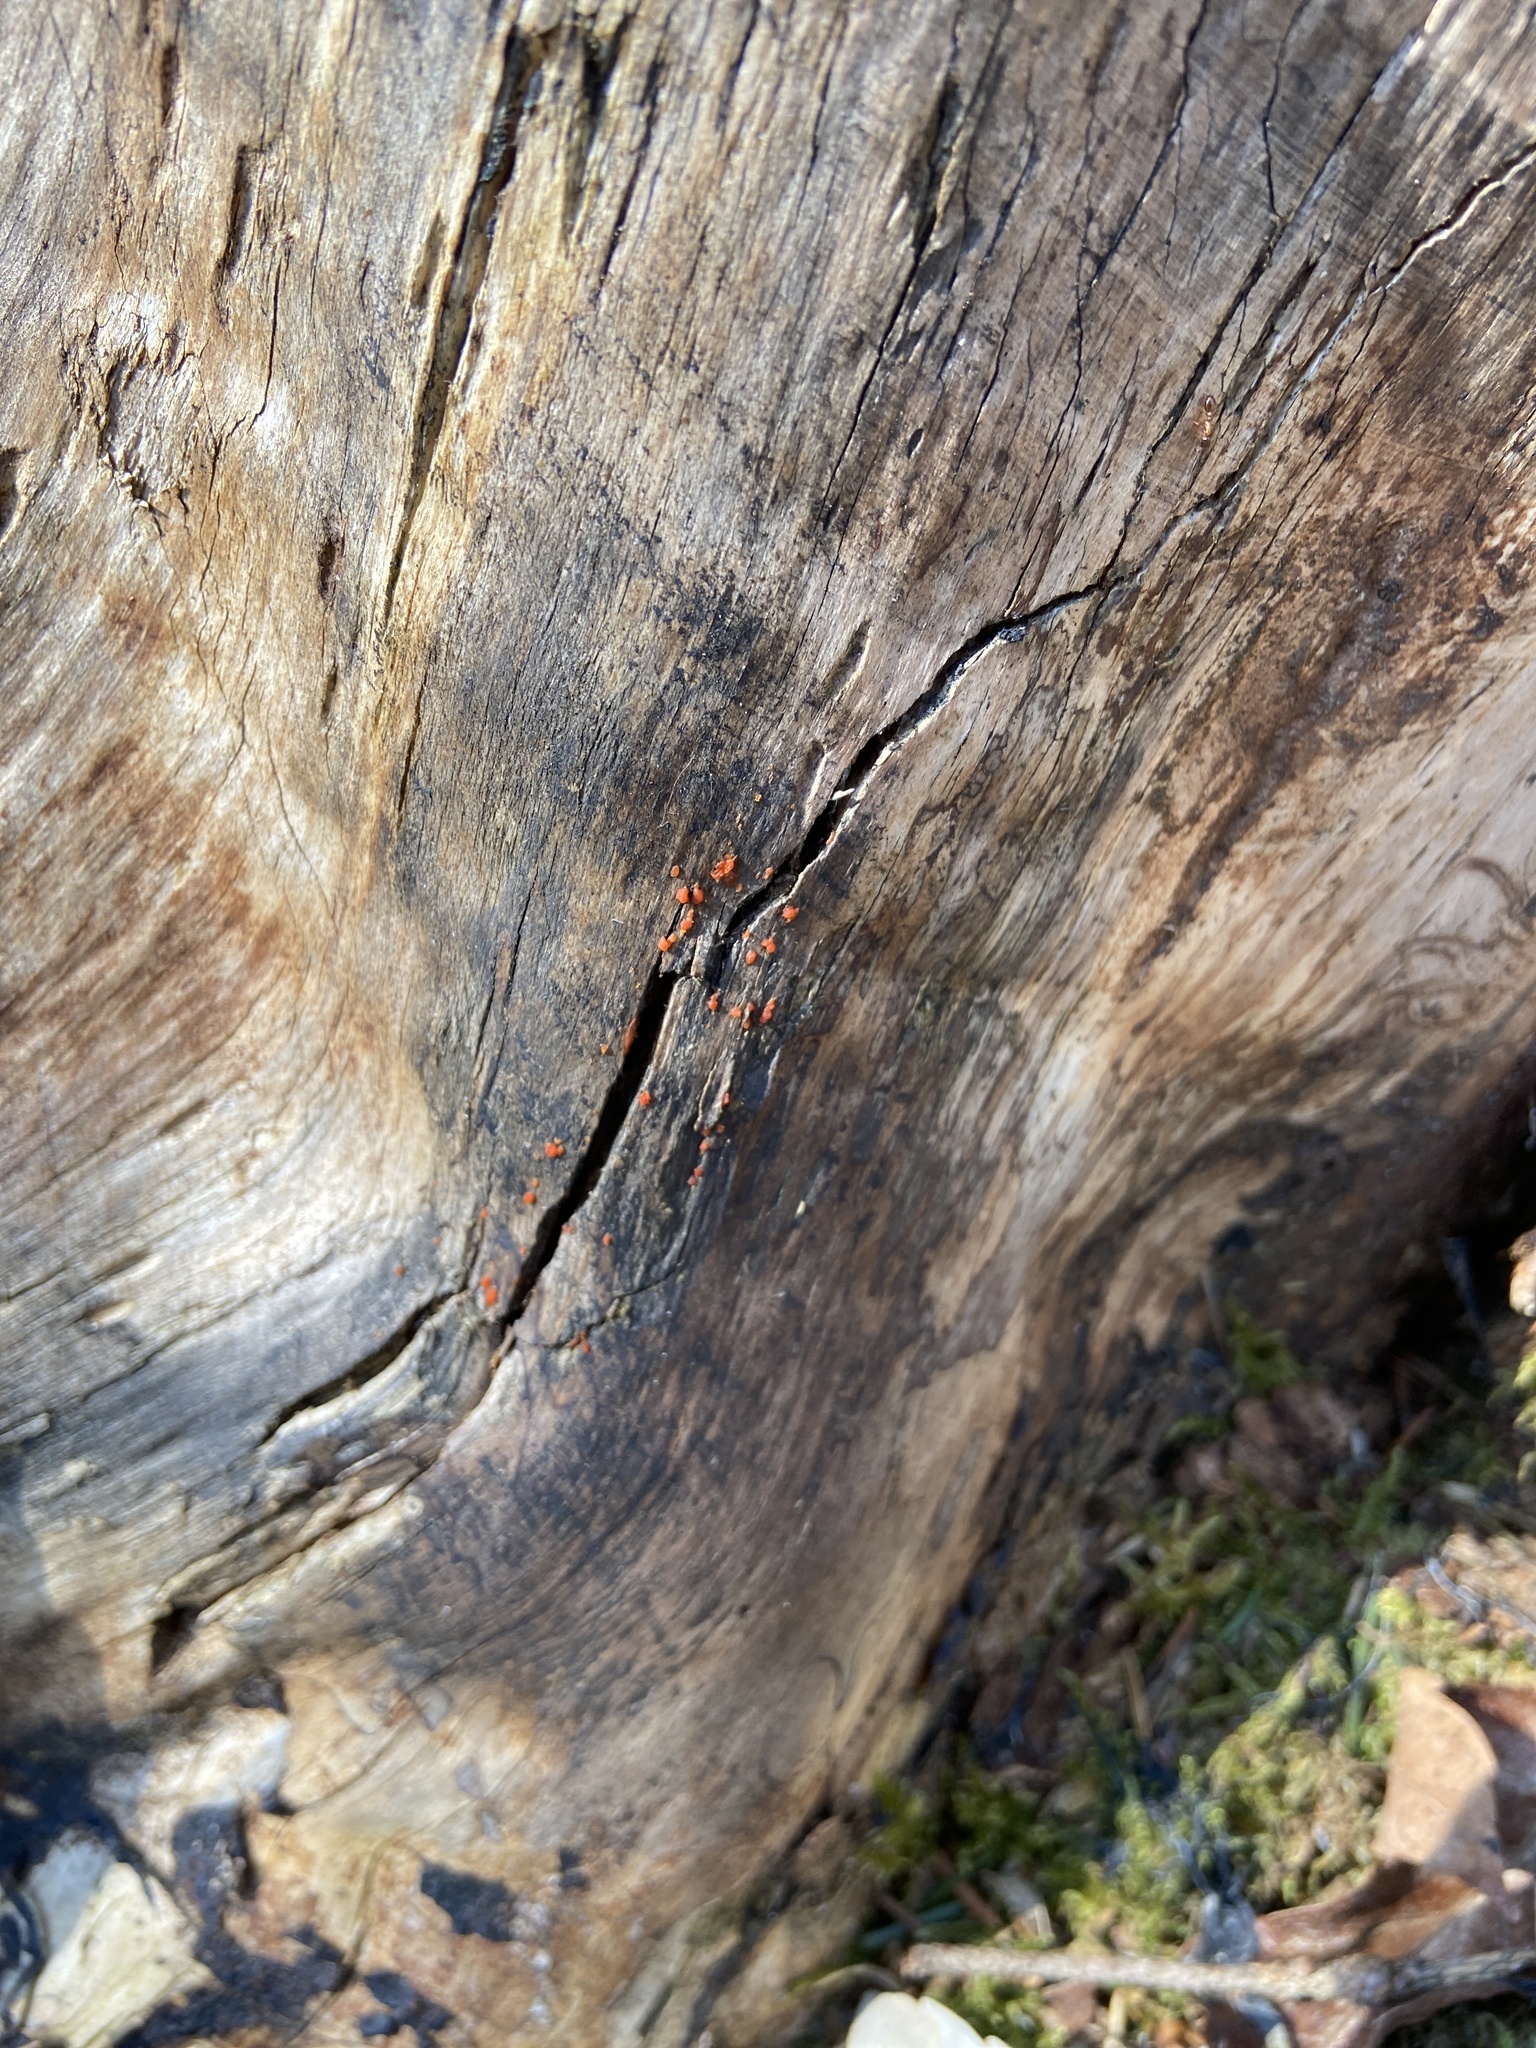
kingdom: Fungi
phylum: Basidiomycota
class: Dacrymycetes
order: Dacrymycetales
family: Dacrymycetaceae
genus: Dacrymyces
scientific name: Dacrymyces stillatus
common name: Common jelly spot
